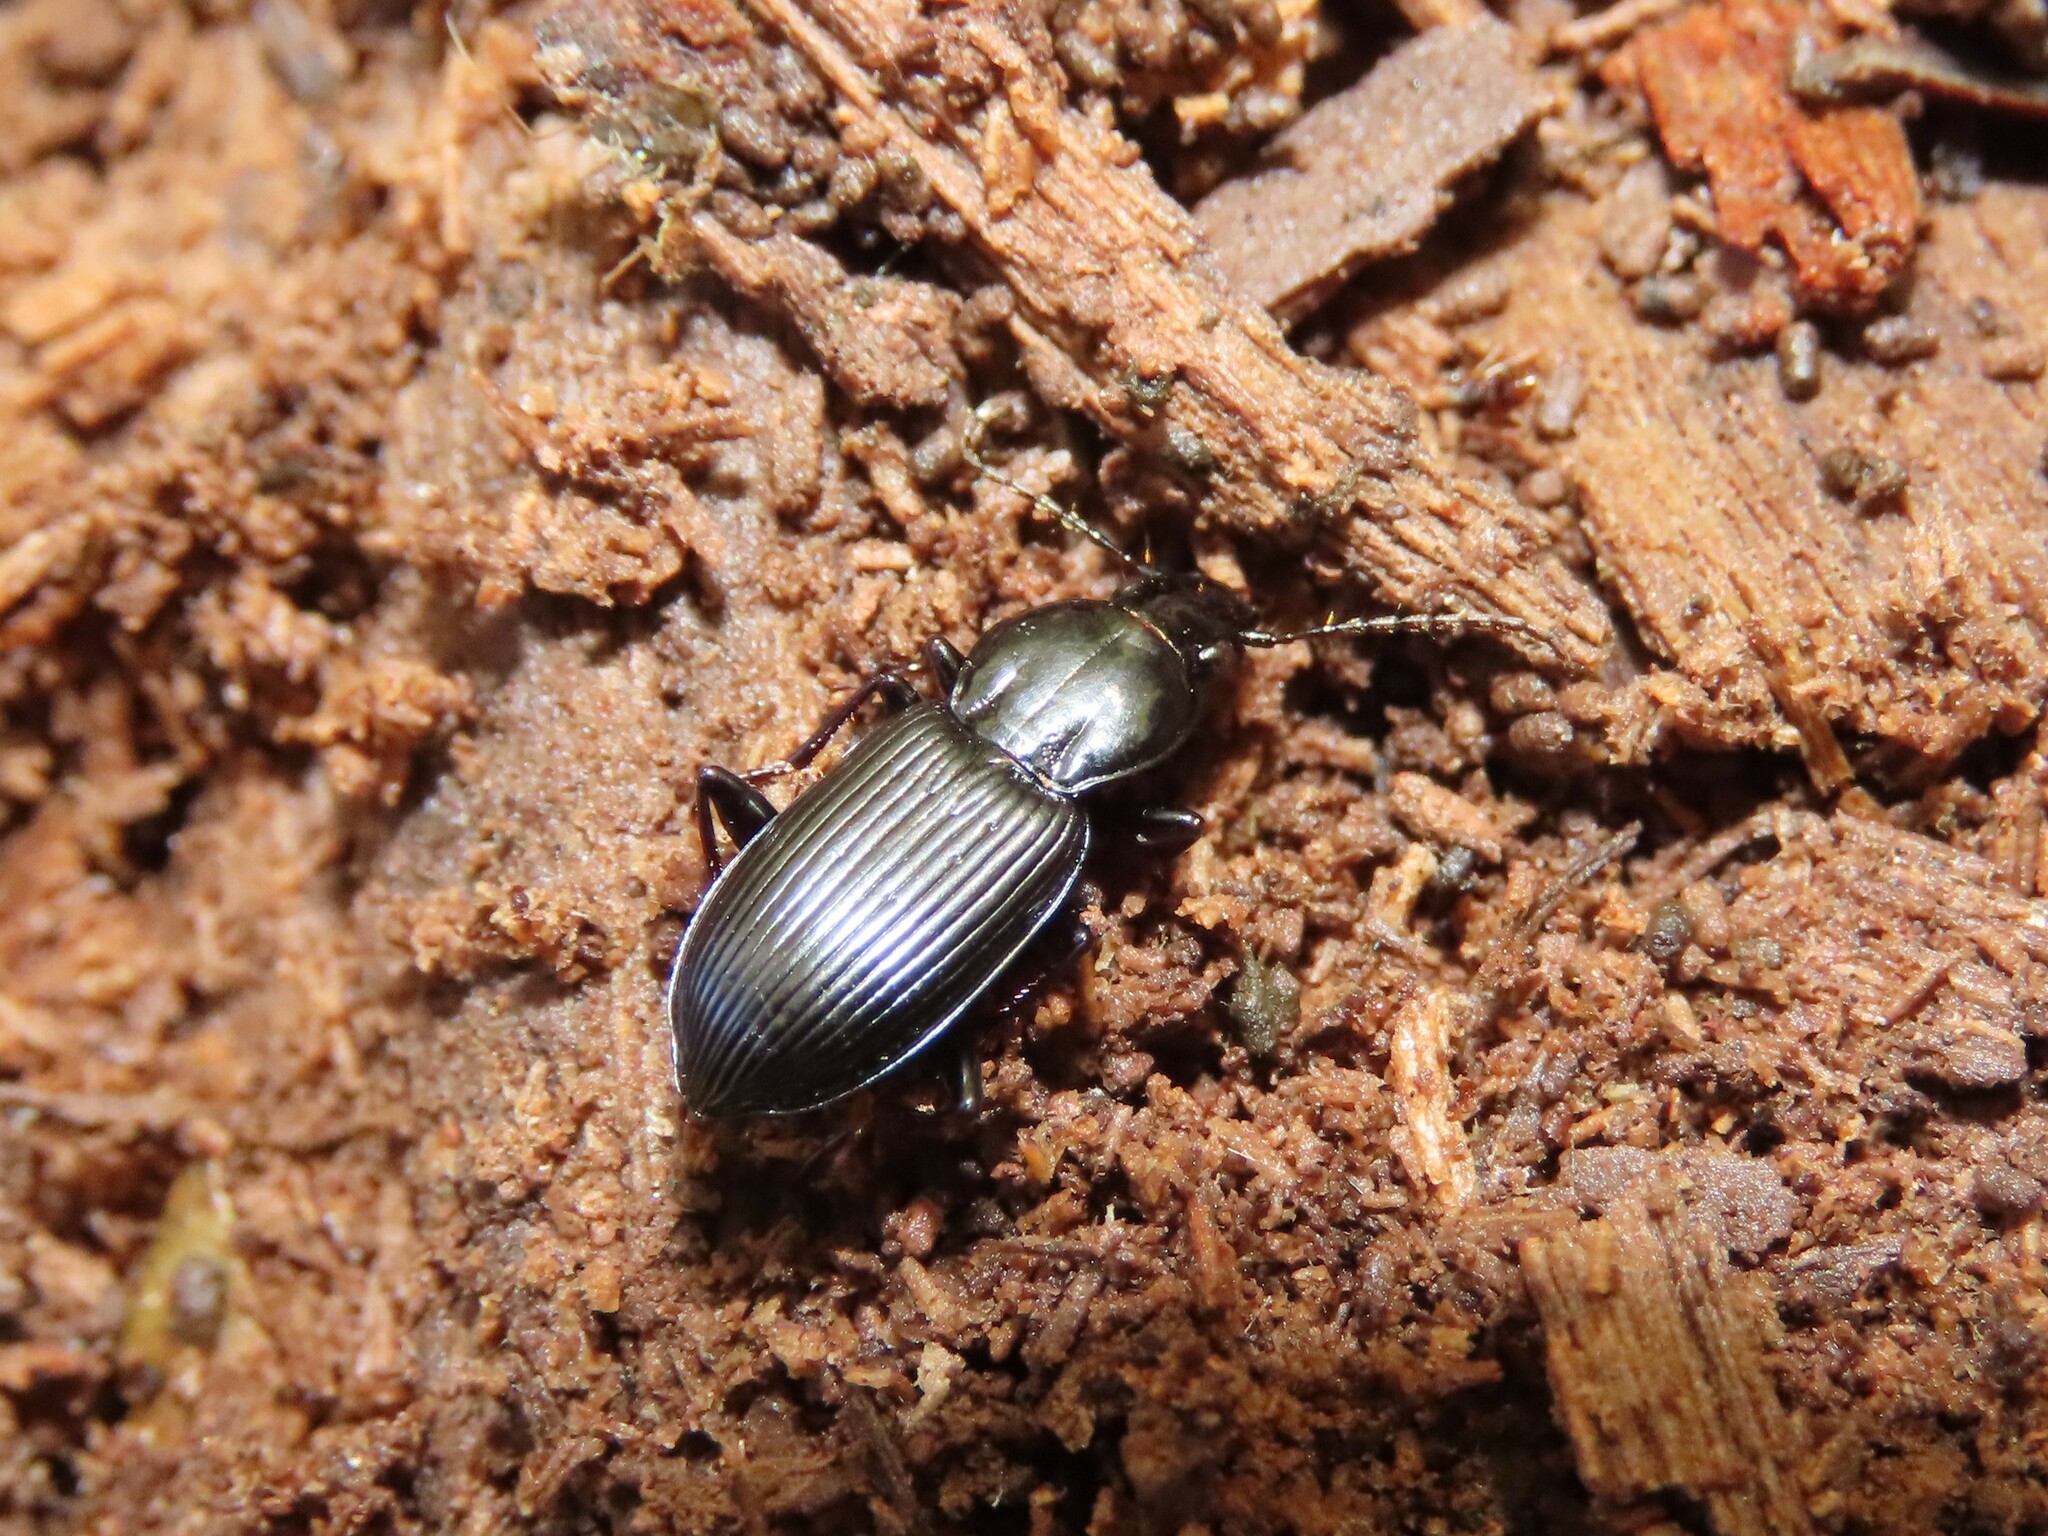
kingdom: Animalia
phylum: Arthropoda
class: Insecta
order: Coleoptera
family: Carabidae
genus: Pterostichus
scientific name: Pterostichus mutus
